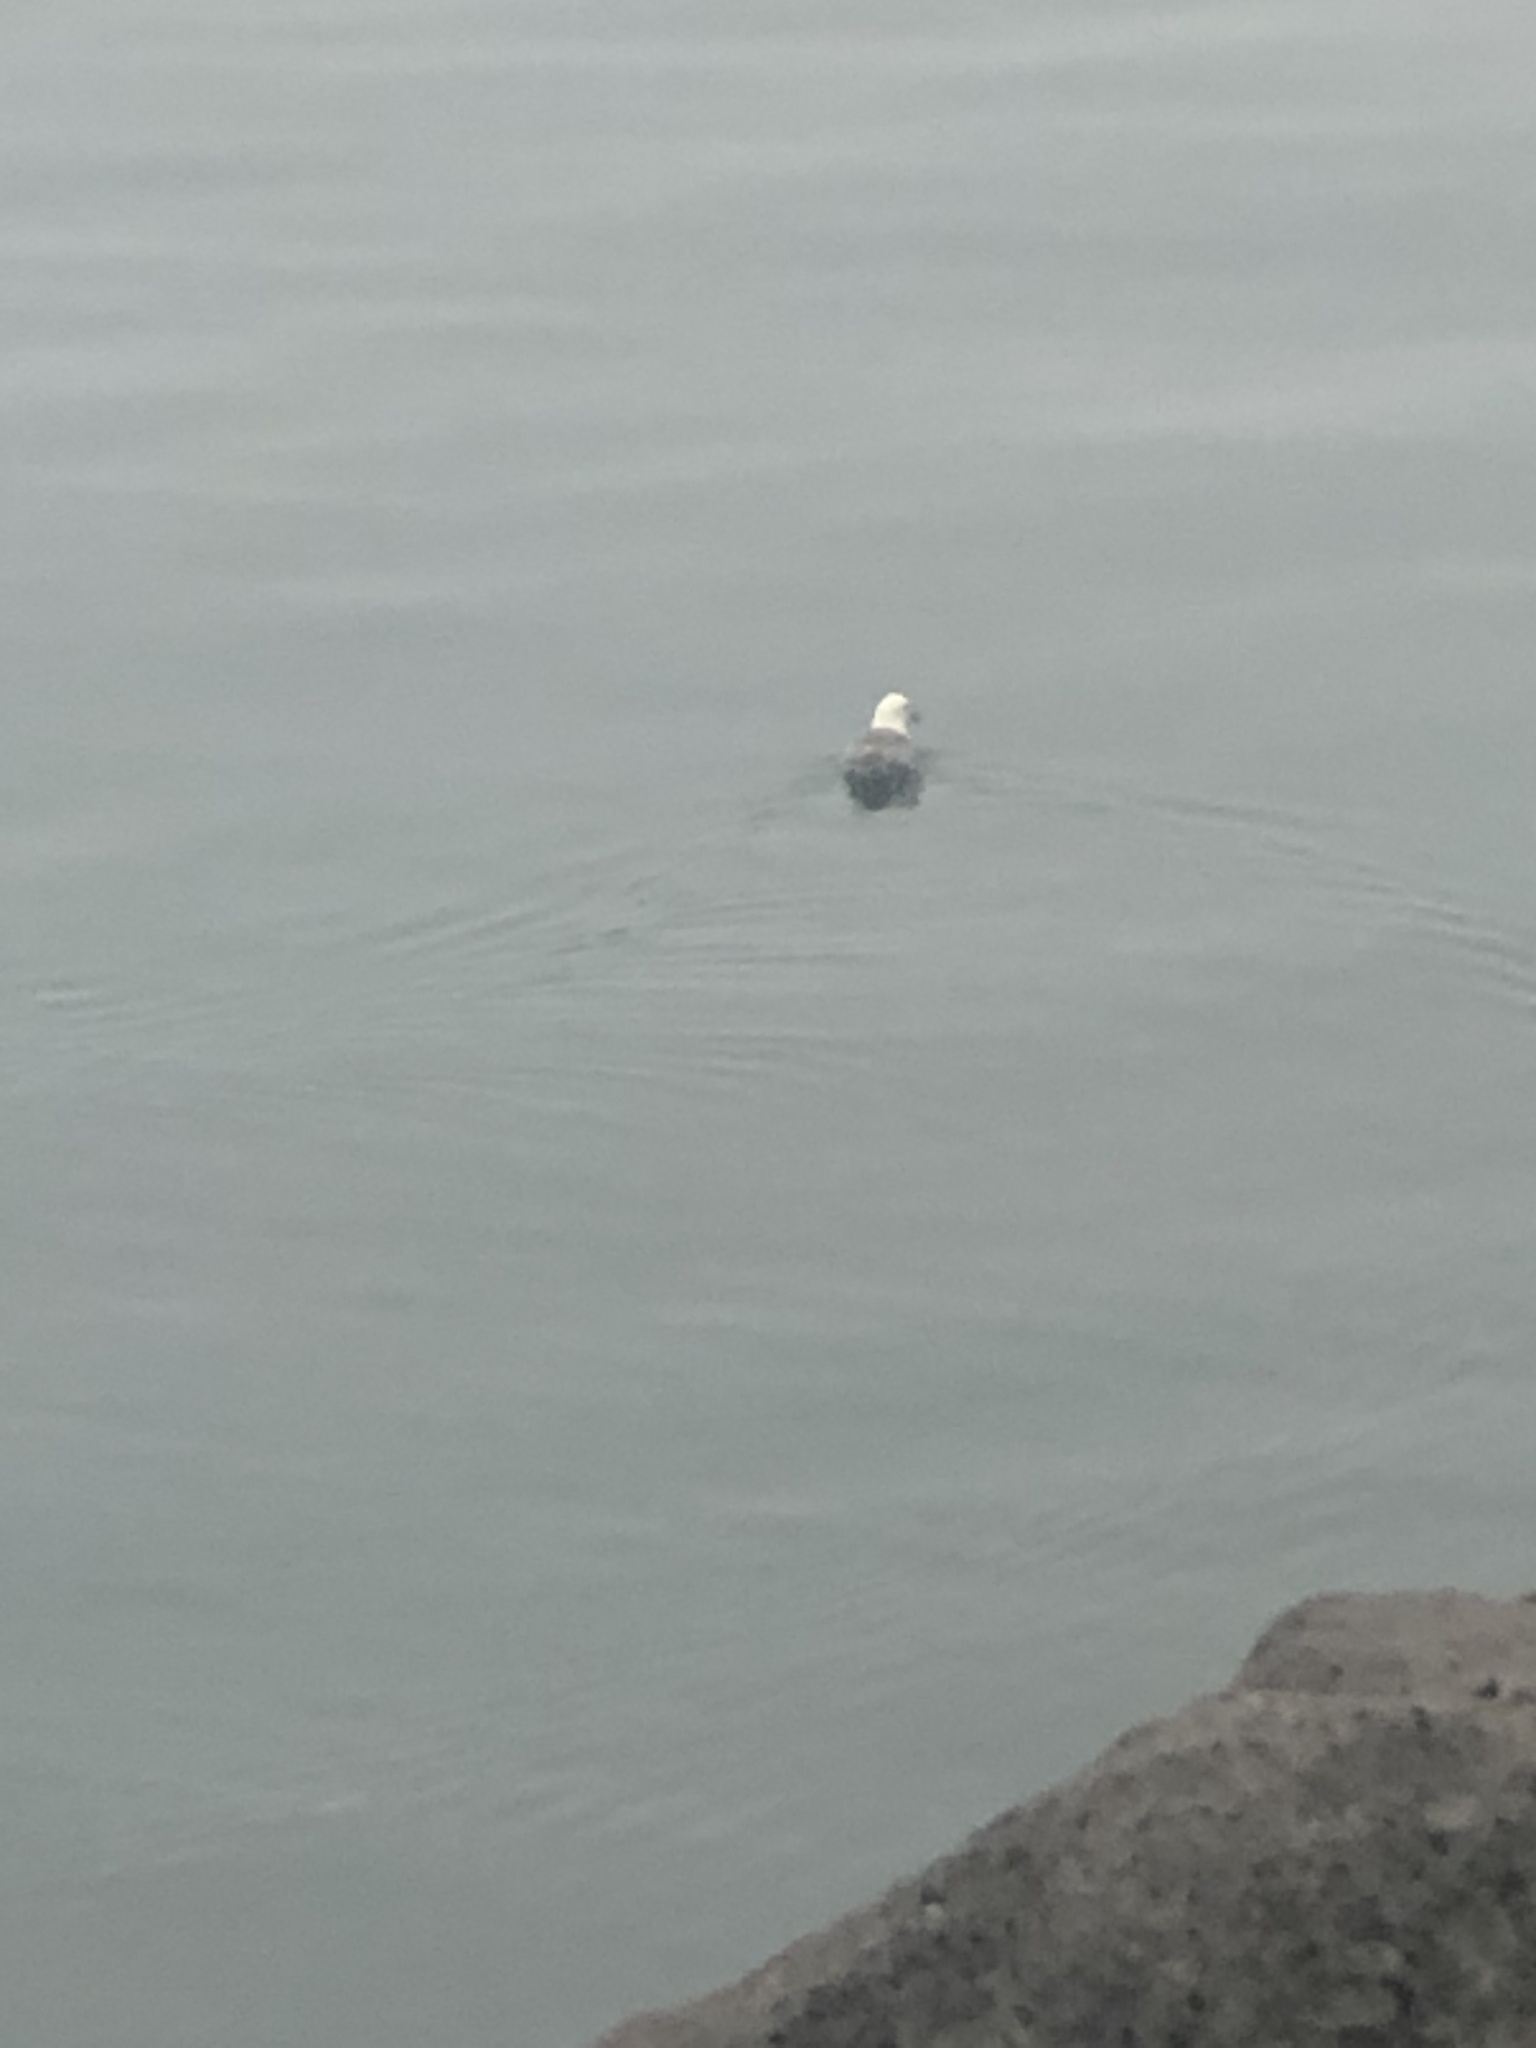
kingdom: Animalia
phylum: Chordata
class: Aves
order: Procellariiformes
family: Procellariidae
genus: Fulmarus
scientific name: Fulmarus glacialis
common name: Northern fulmar
